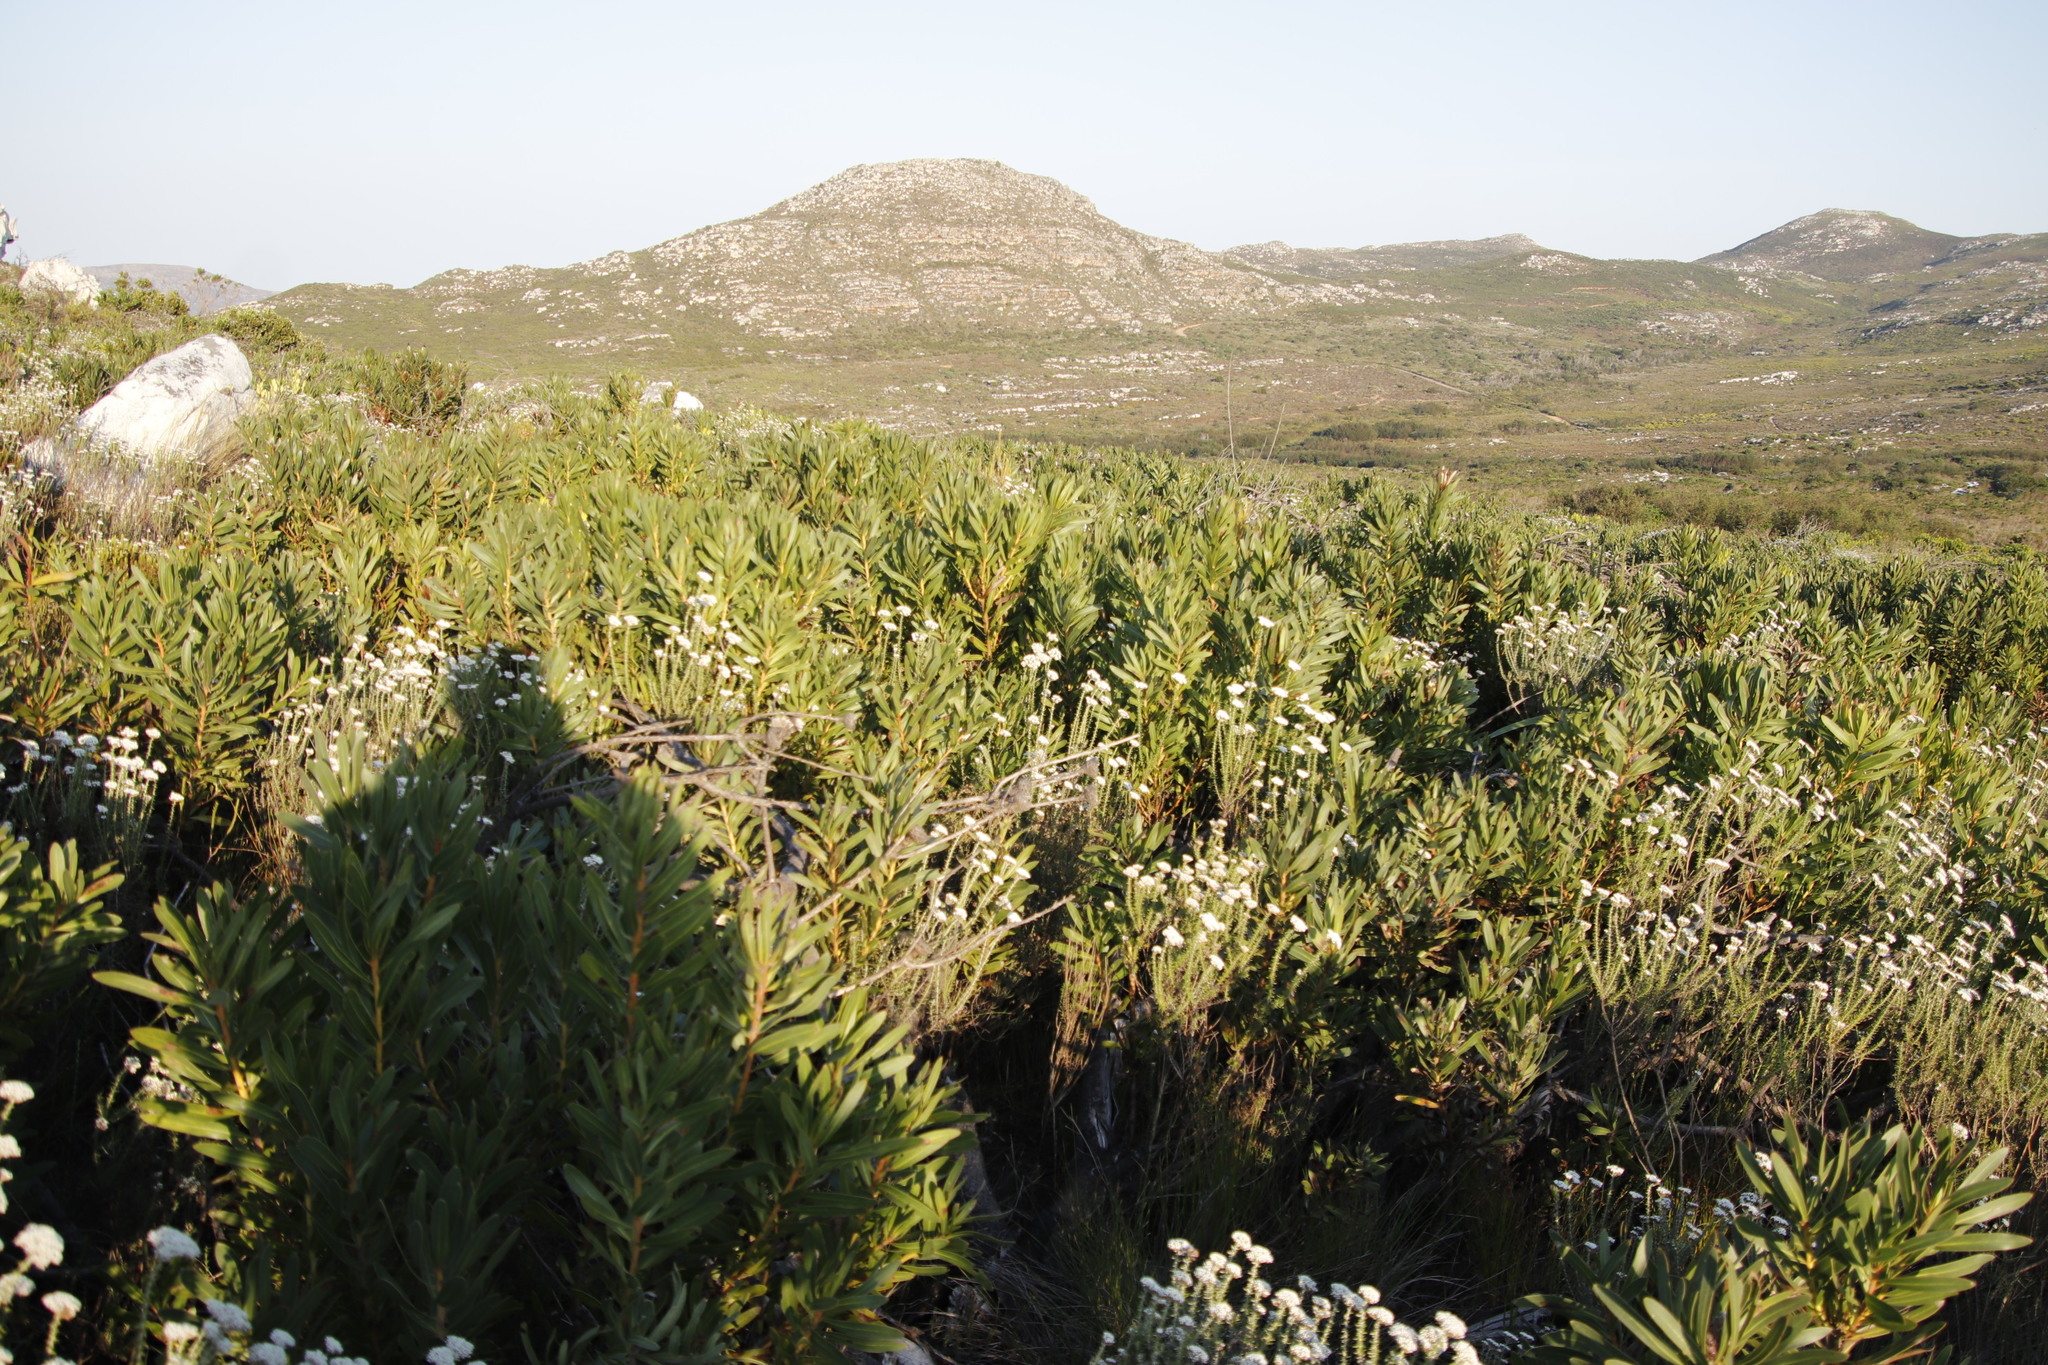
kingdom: Plantae
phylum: Tracheophyta
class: Magnoliopsida
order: Proteales
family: Proteaceae
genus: Protea
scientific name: Protea lepidocarpodendron
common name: Black-bearded protea
